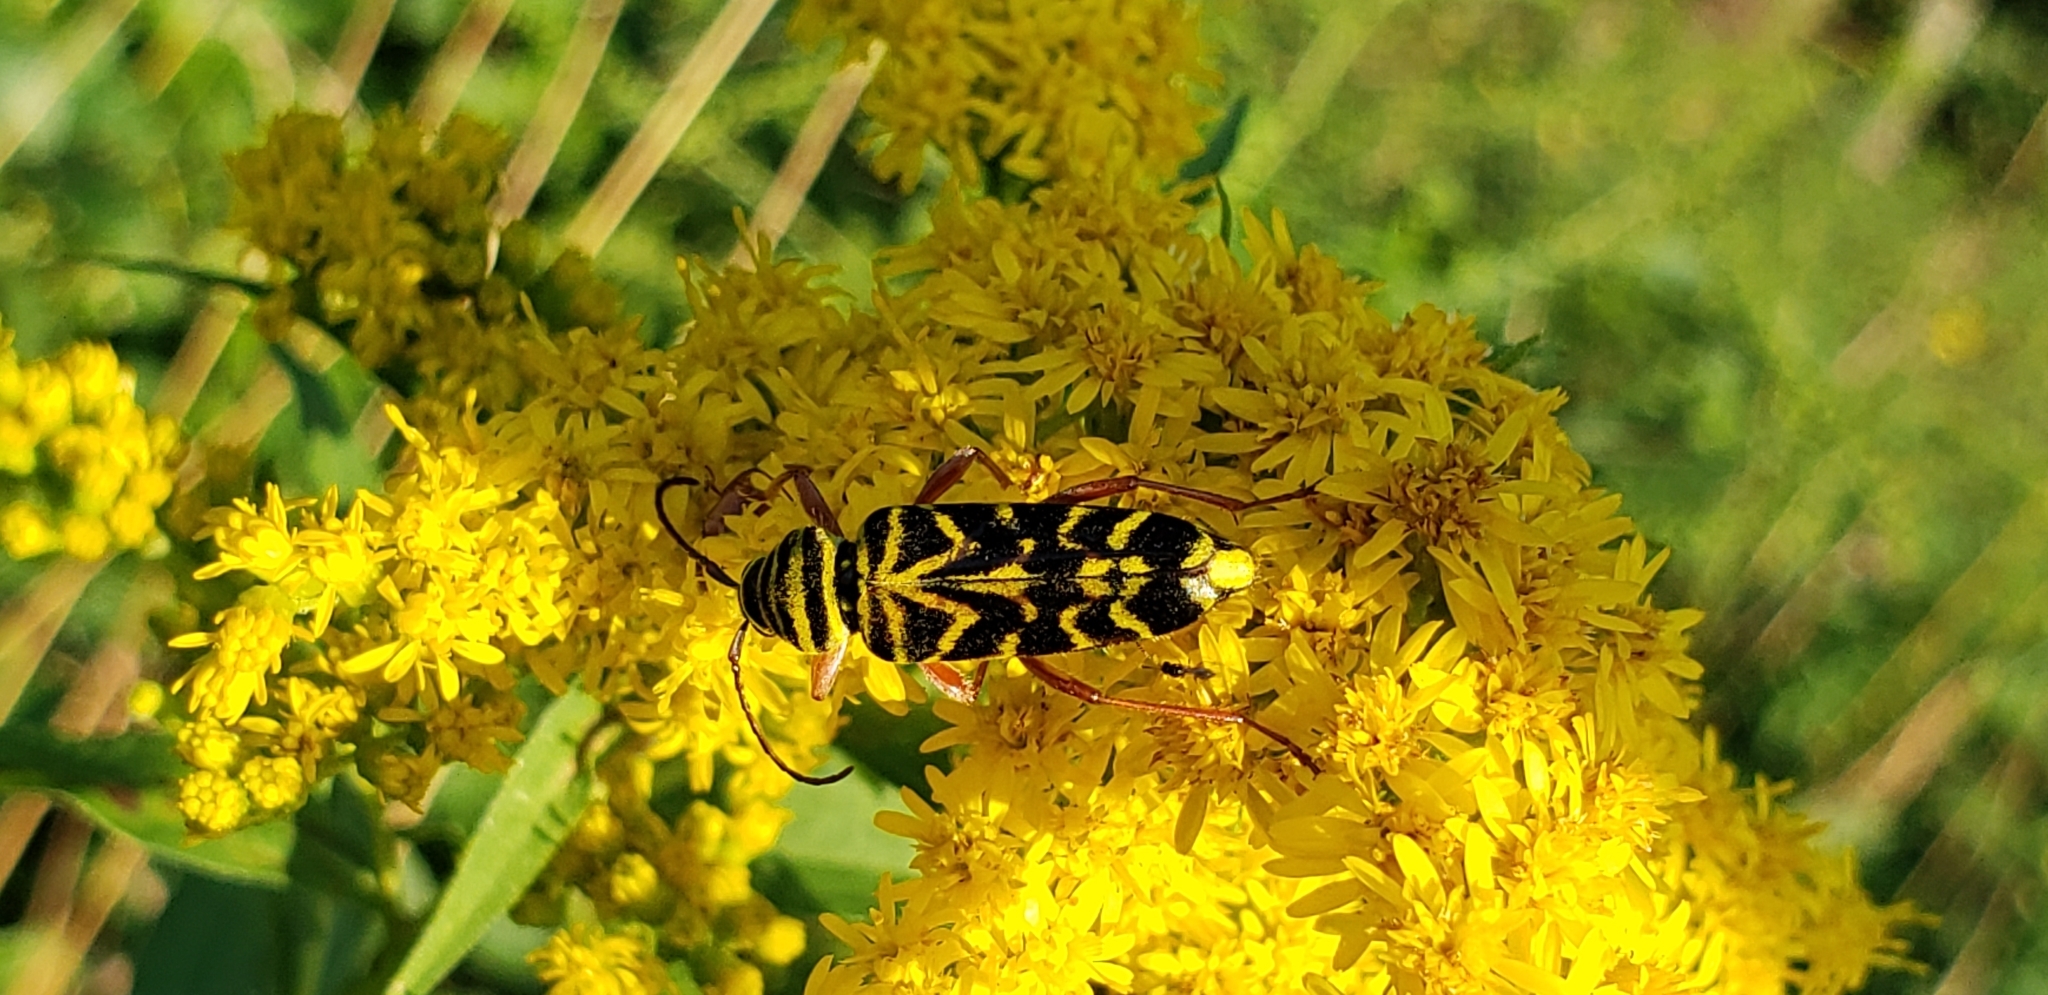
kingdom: Animalia
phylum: Arthropoda
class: Insecta
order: Coleoptera
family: Cerambycidae
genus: Megacyllene
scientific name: Megacyllene robiniae
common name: Locust borer
